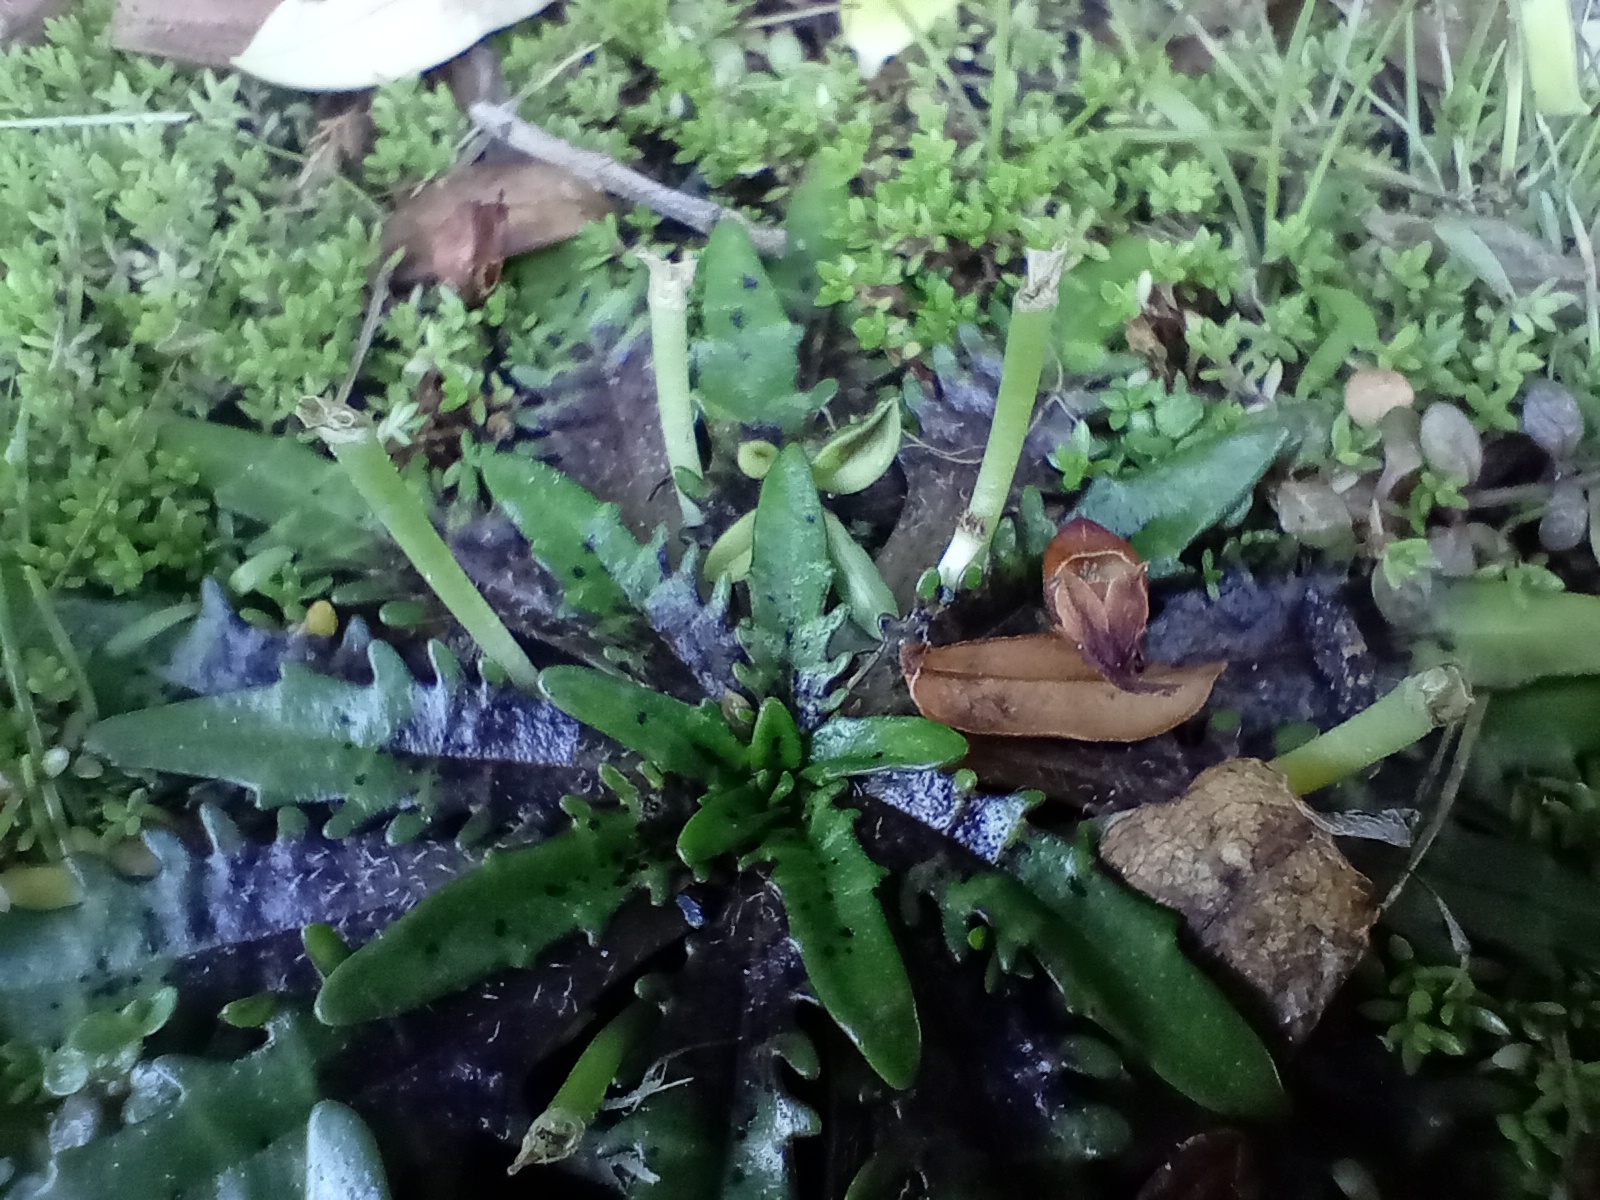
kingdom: Plantae
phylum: Tracheophyta
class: Magnoliopsida
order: Lamiales
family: Plantaginaceae
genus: Plantago
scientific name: Plantago triandra
